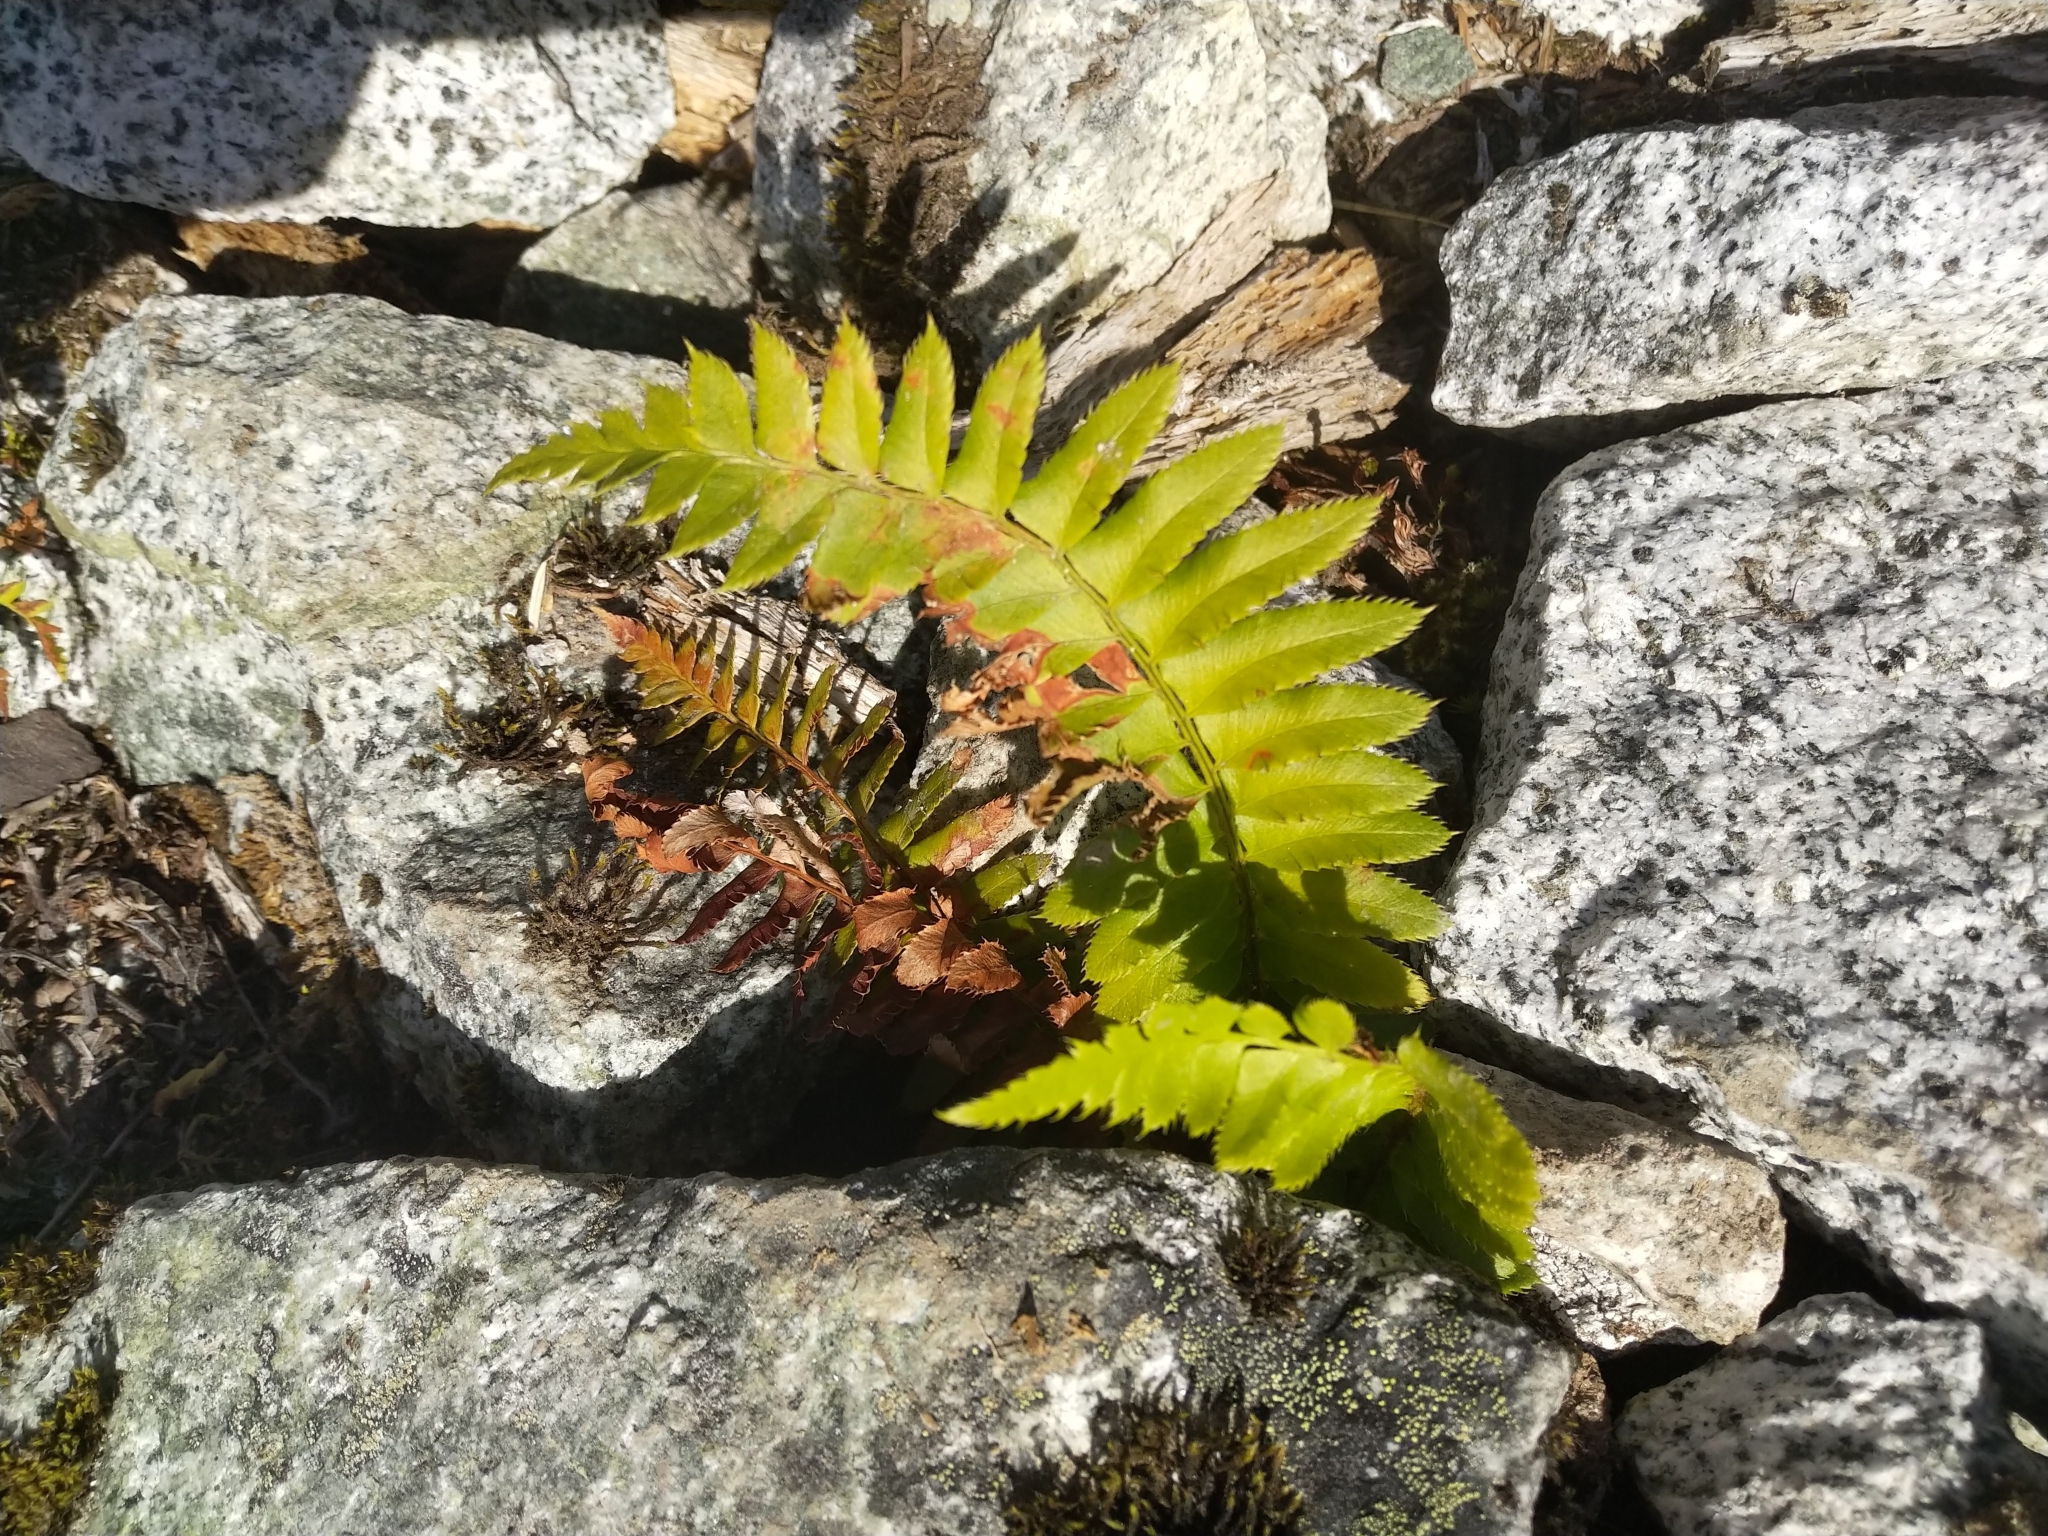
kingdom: Plantae
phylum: Tracheophyta
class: Polypodiopsida
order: Polypodiales
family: Dryopteridaceae
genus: Polystichum
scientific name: Polystichum munitum
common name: Western sword-fern
